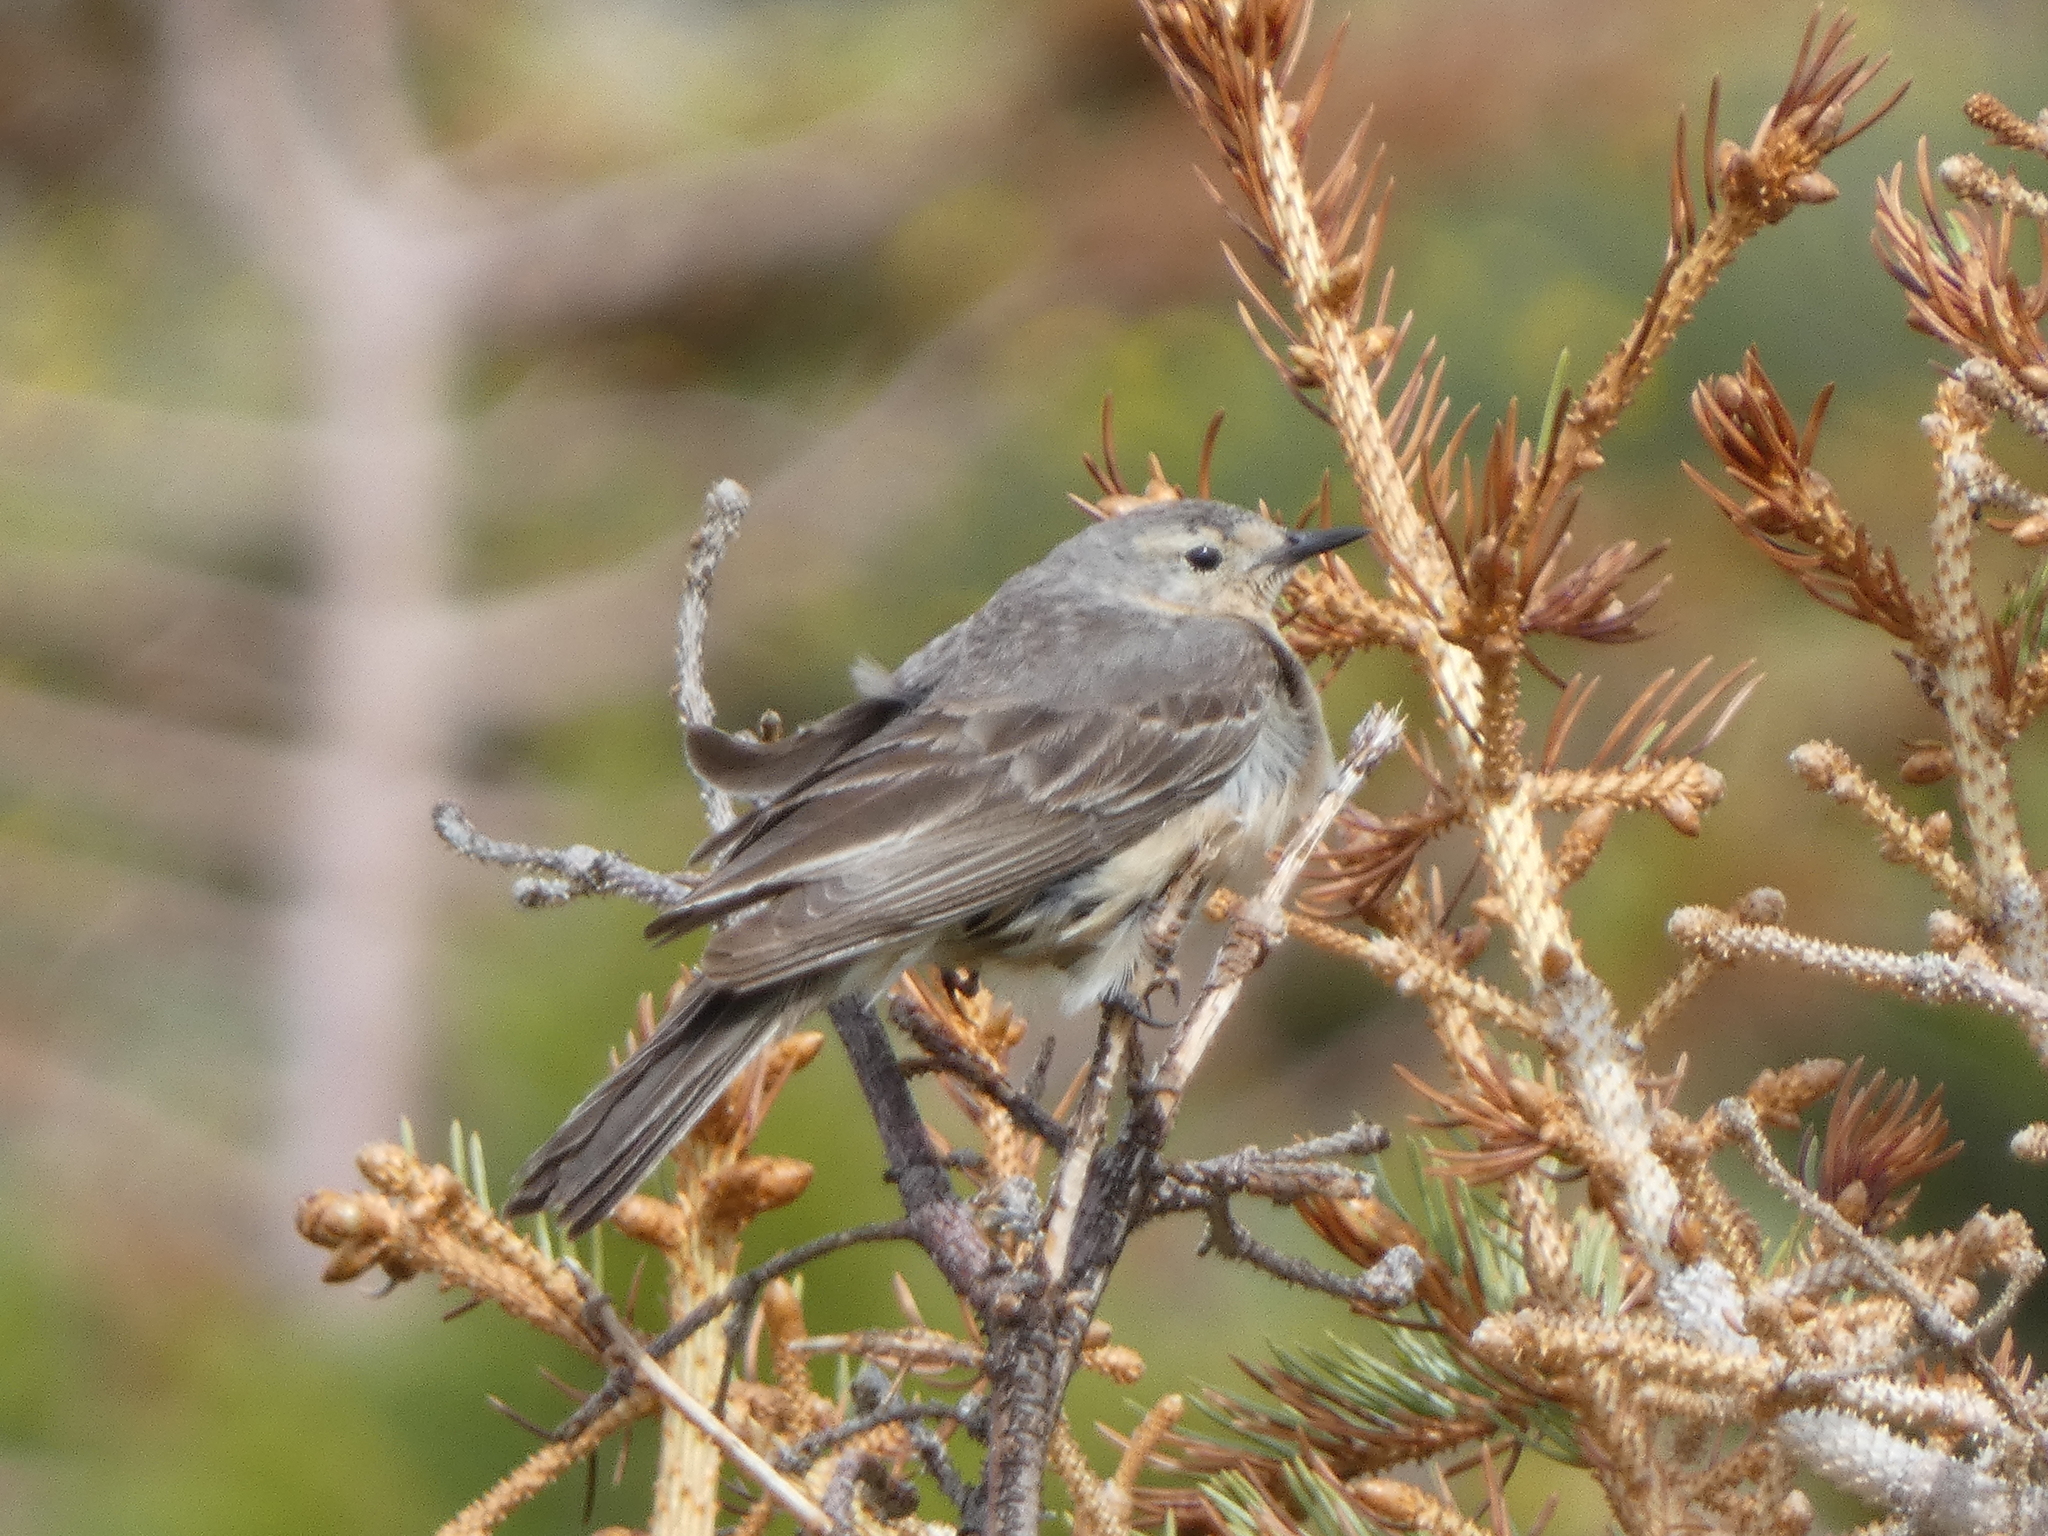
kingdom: Animalia
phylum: Chordata
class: Aves
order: Passeriformes
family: Motacillidae
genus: Anthus
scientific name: Anthus rubescens
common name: Buff-bellied pipit
